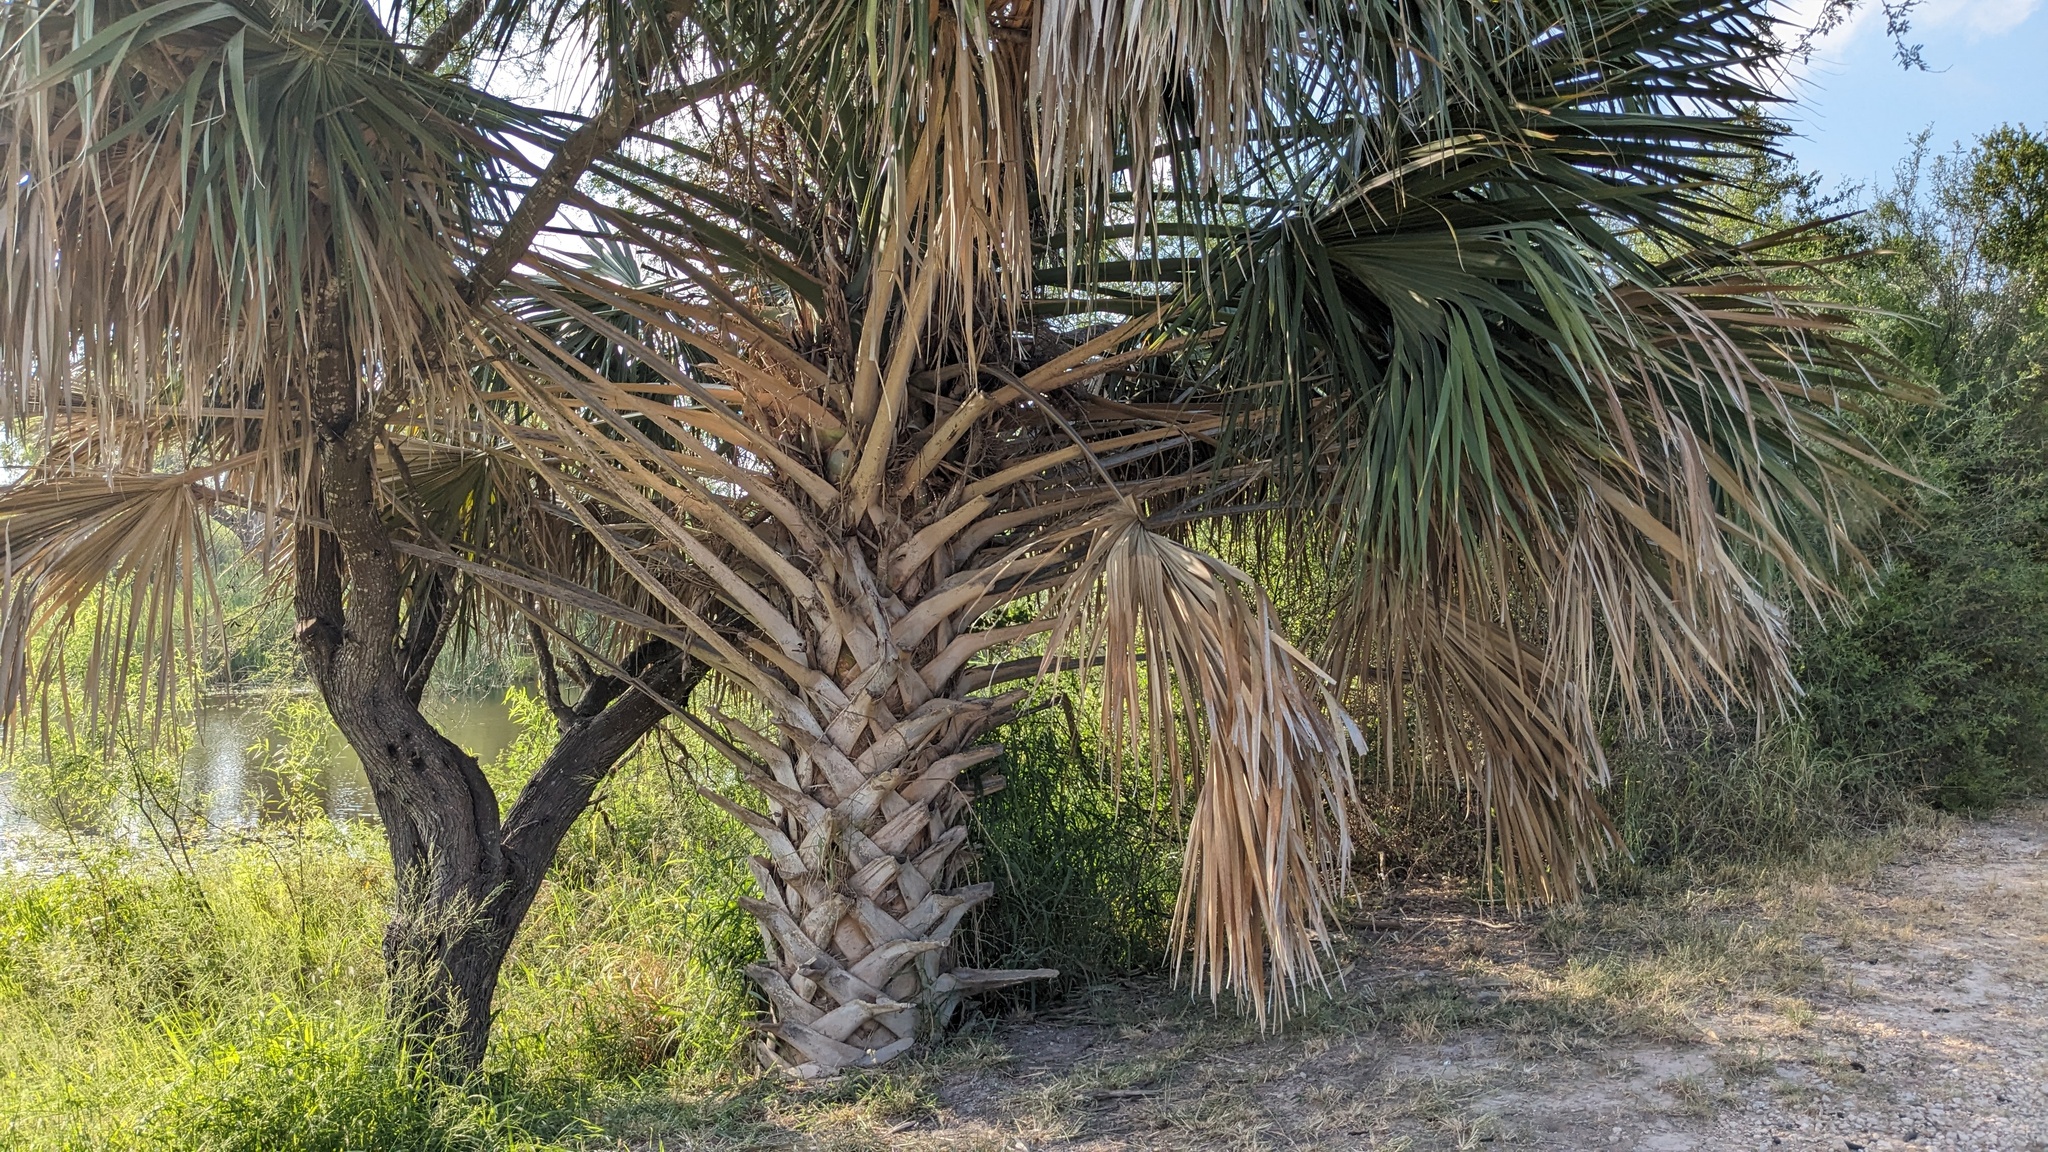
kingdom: Plantae
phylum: Tracheophyta
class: Liliopsida
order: Arecales
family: Arecaceae
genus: Sabal
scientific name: Sabal mexicana
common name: Texas palmetto
